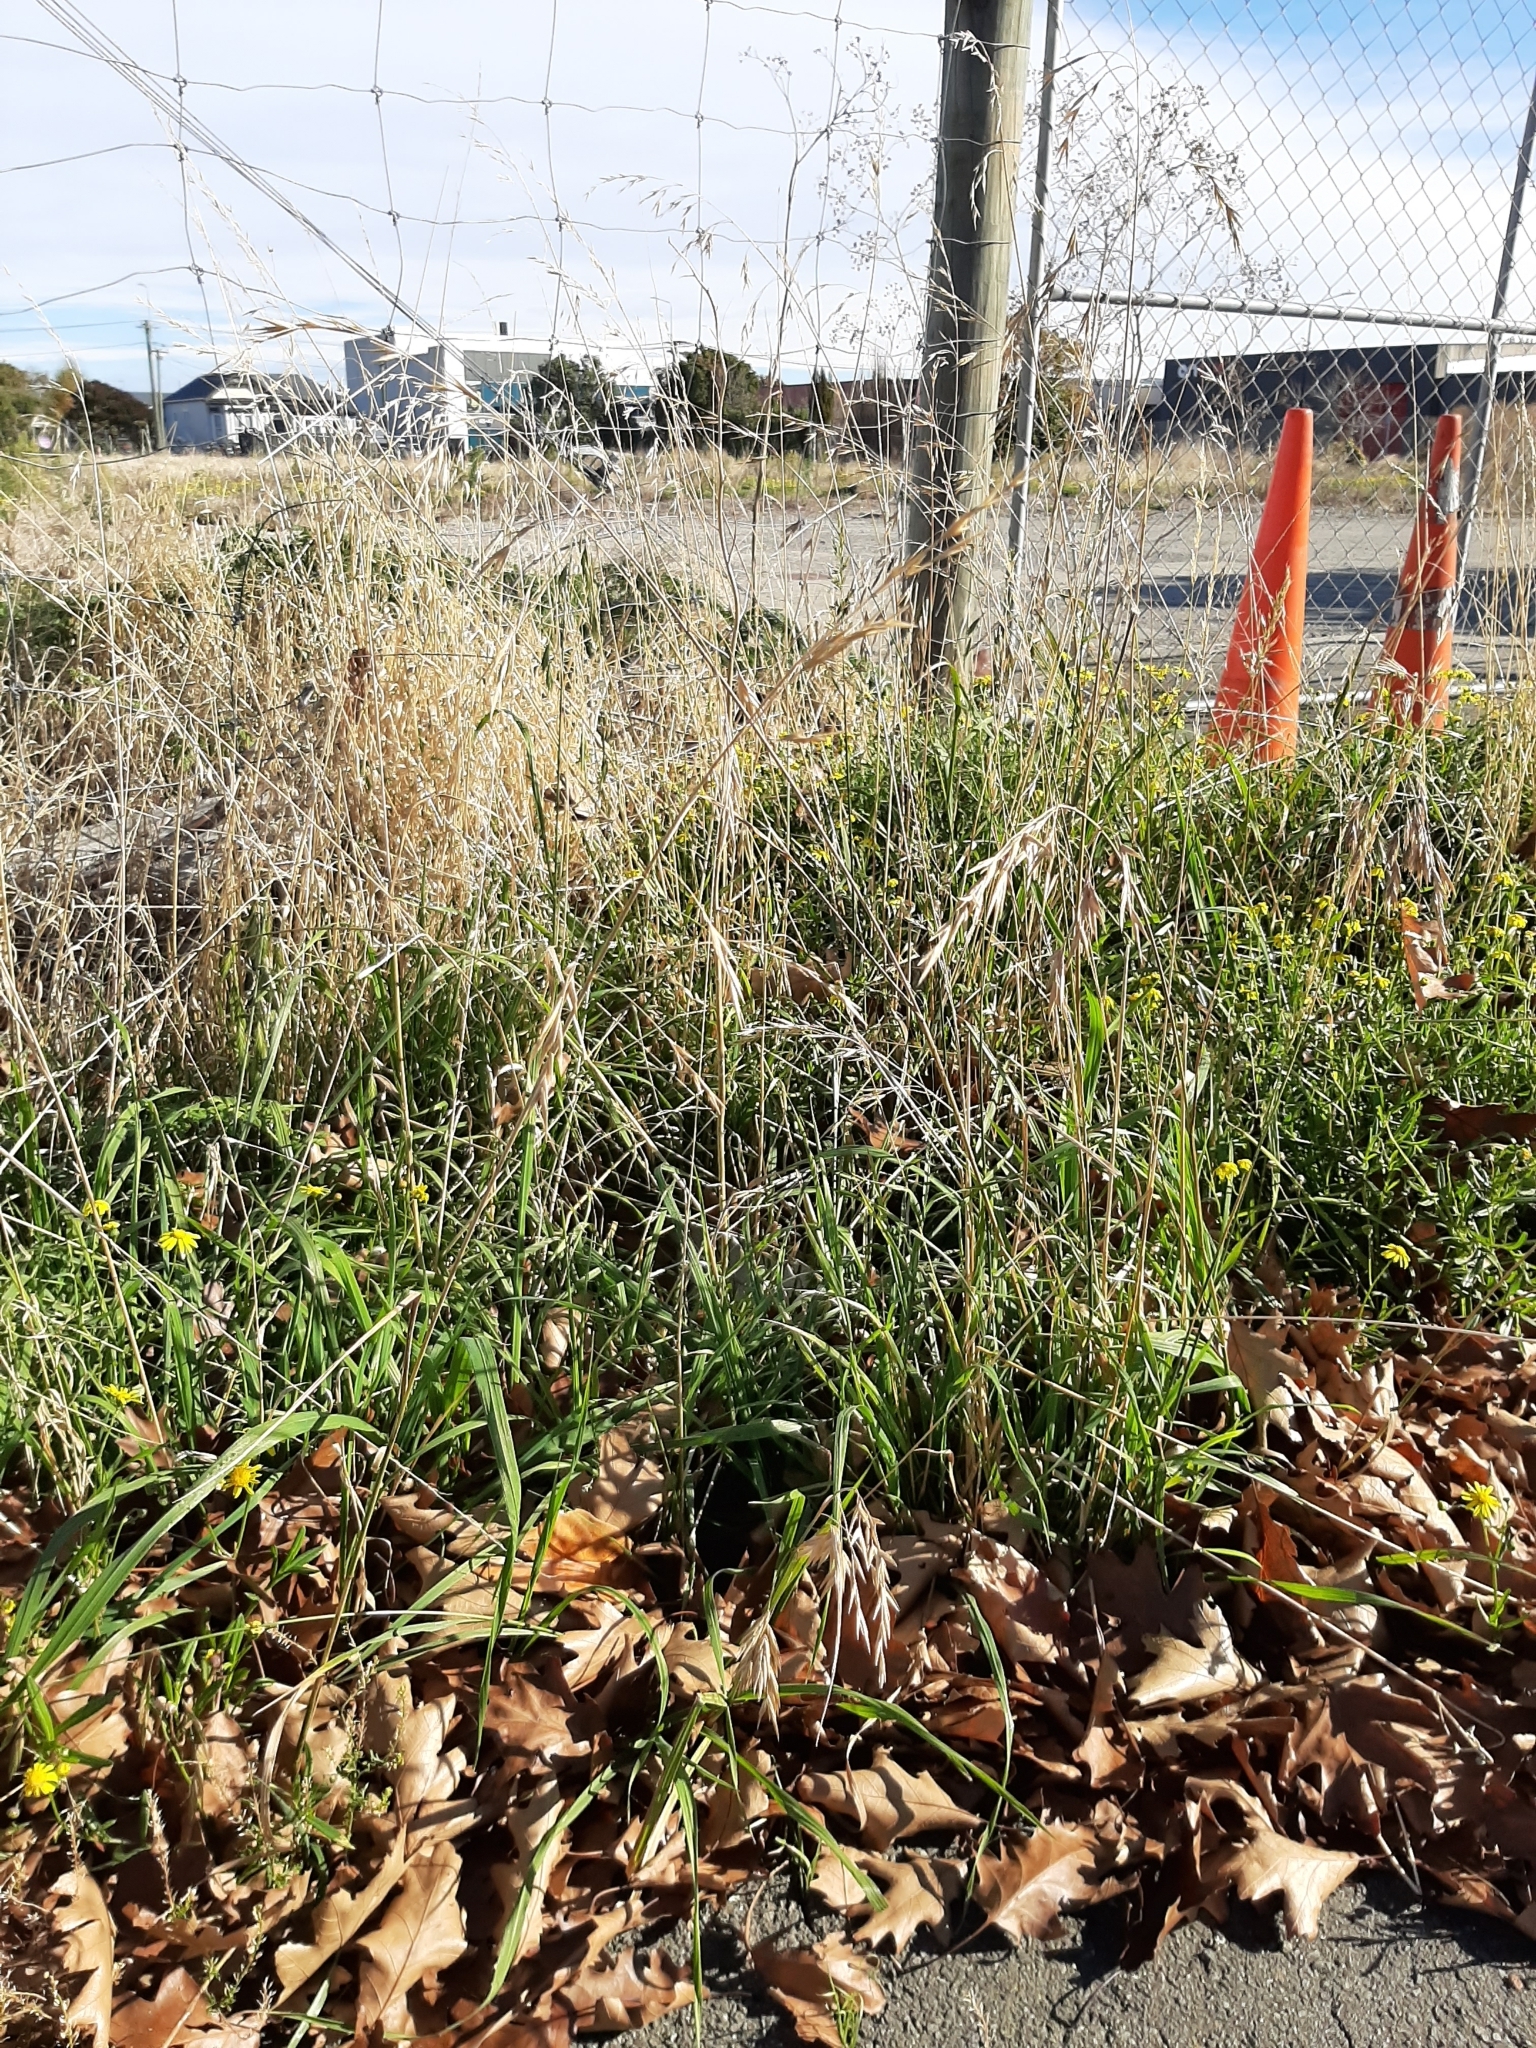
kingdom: Plantae
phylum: Tracheophyta
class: Liliopsida
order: Poales
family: Poaceae
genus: Bromus
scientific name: Bromus catharticus
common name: Rescuegrass
